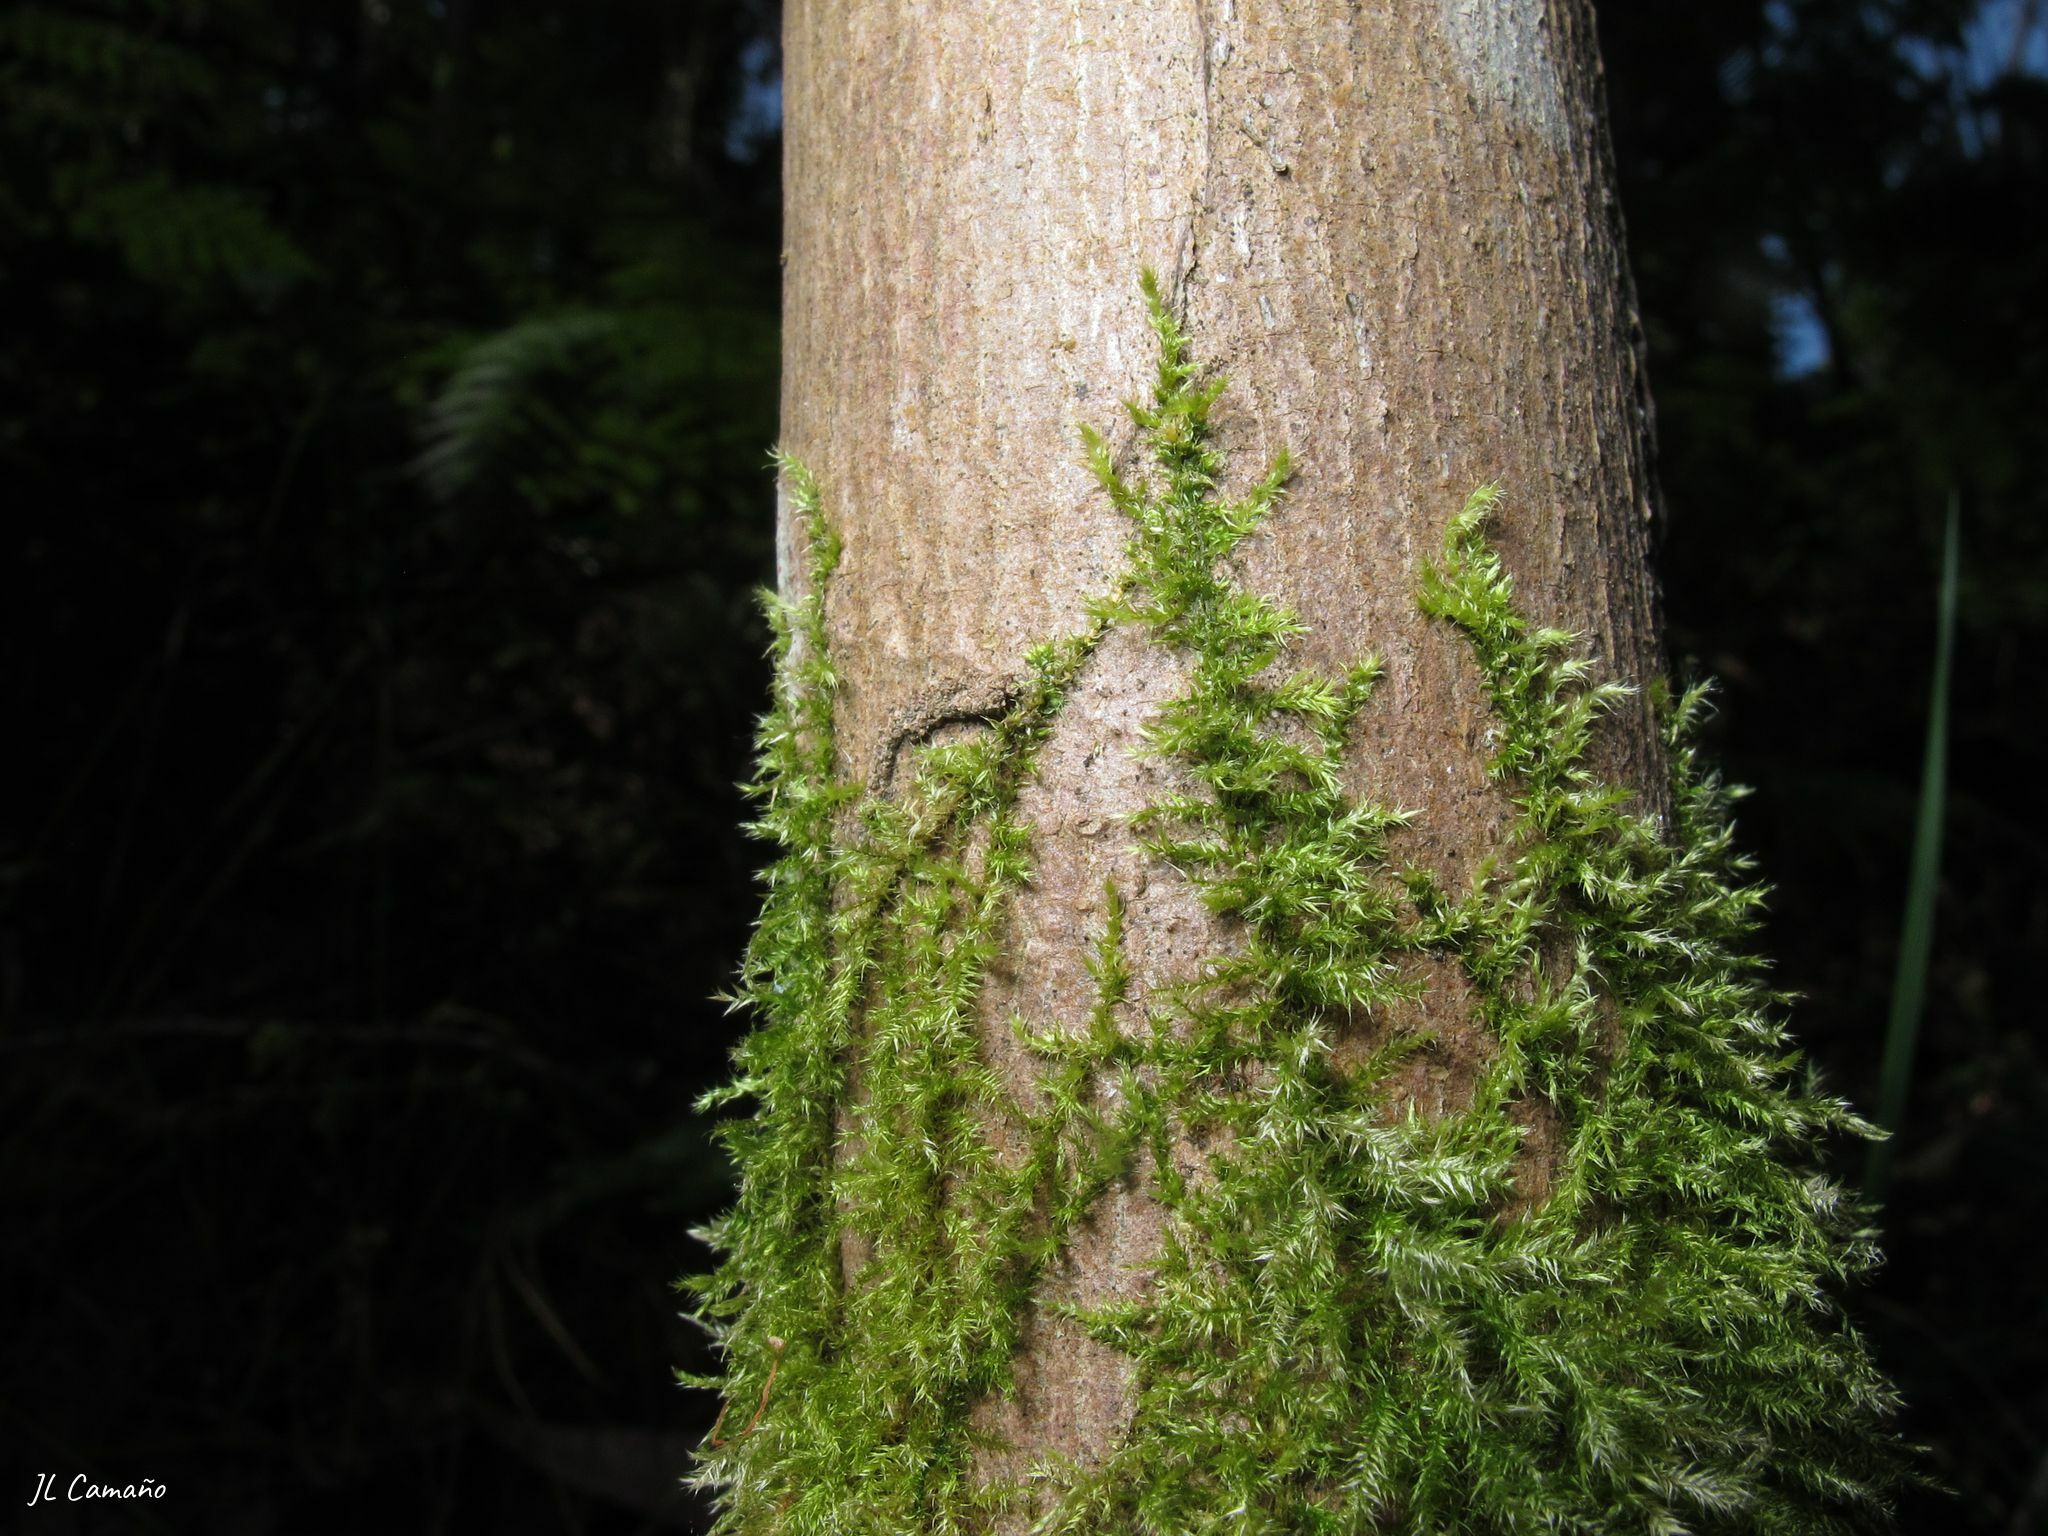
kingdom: Plantae
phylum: Bryophyta
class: Bryopsida
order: Hypnales
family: Brachytheciaceae
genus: Kindbergia
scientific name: Kindbergia praelonga
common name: Slender beaked moss
